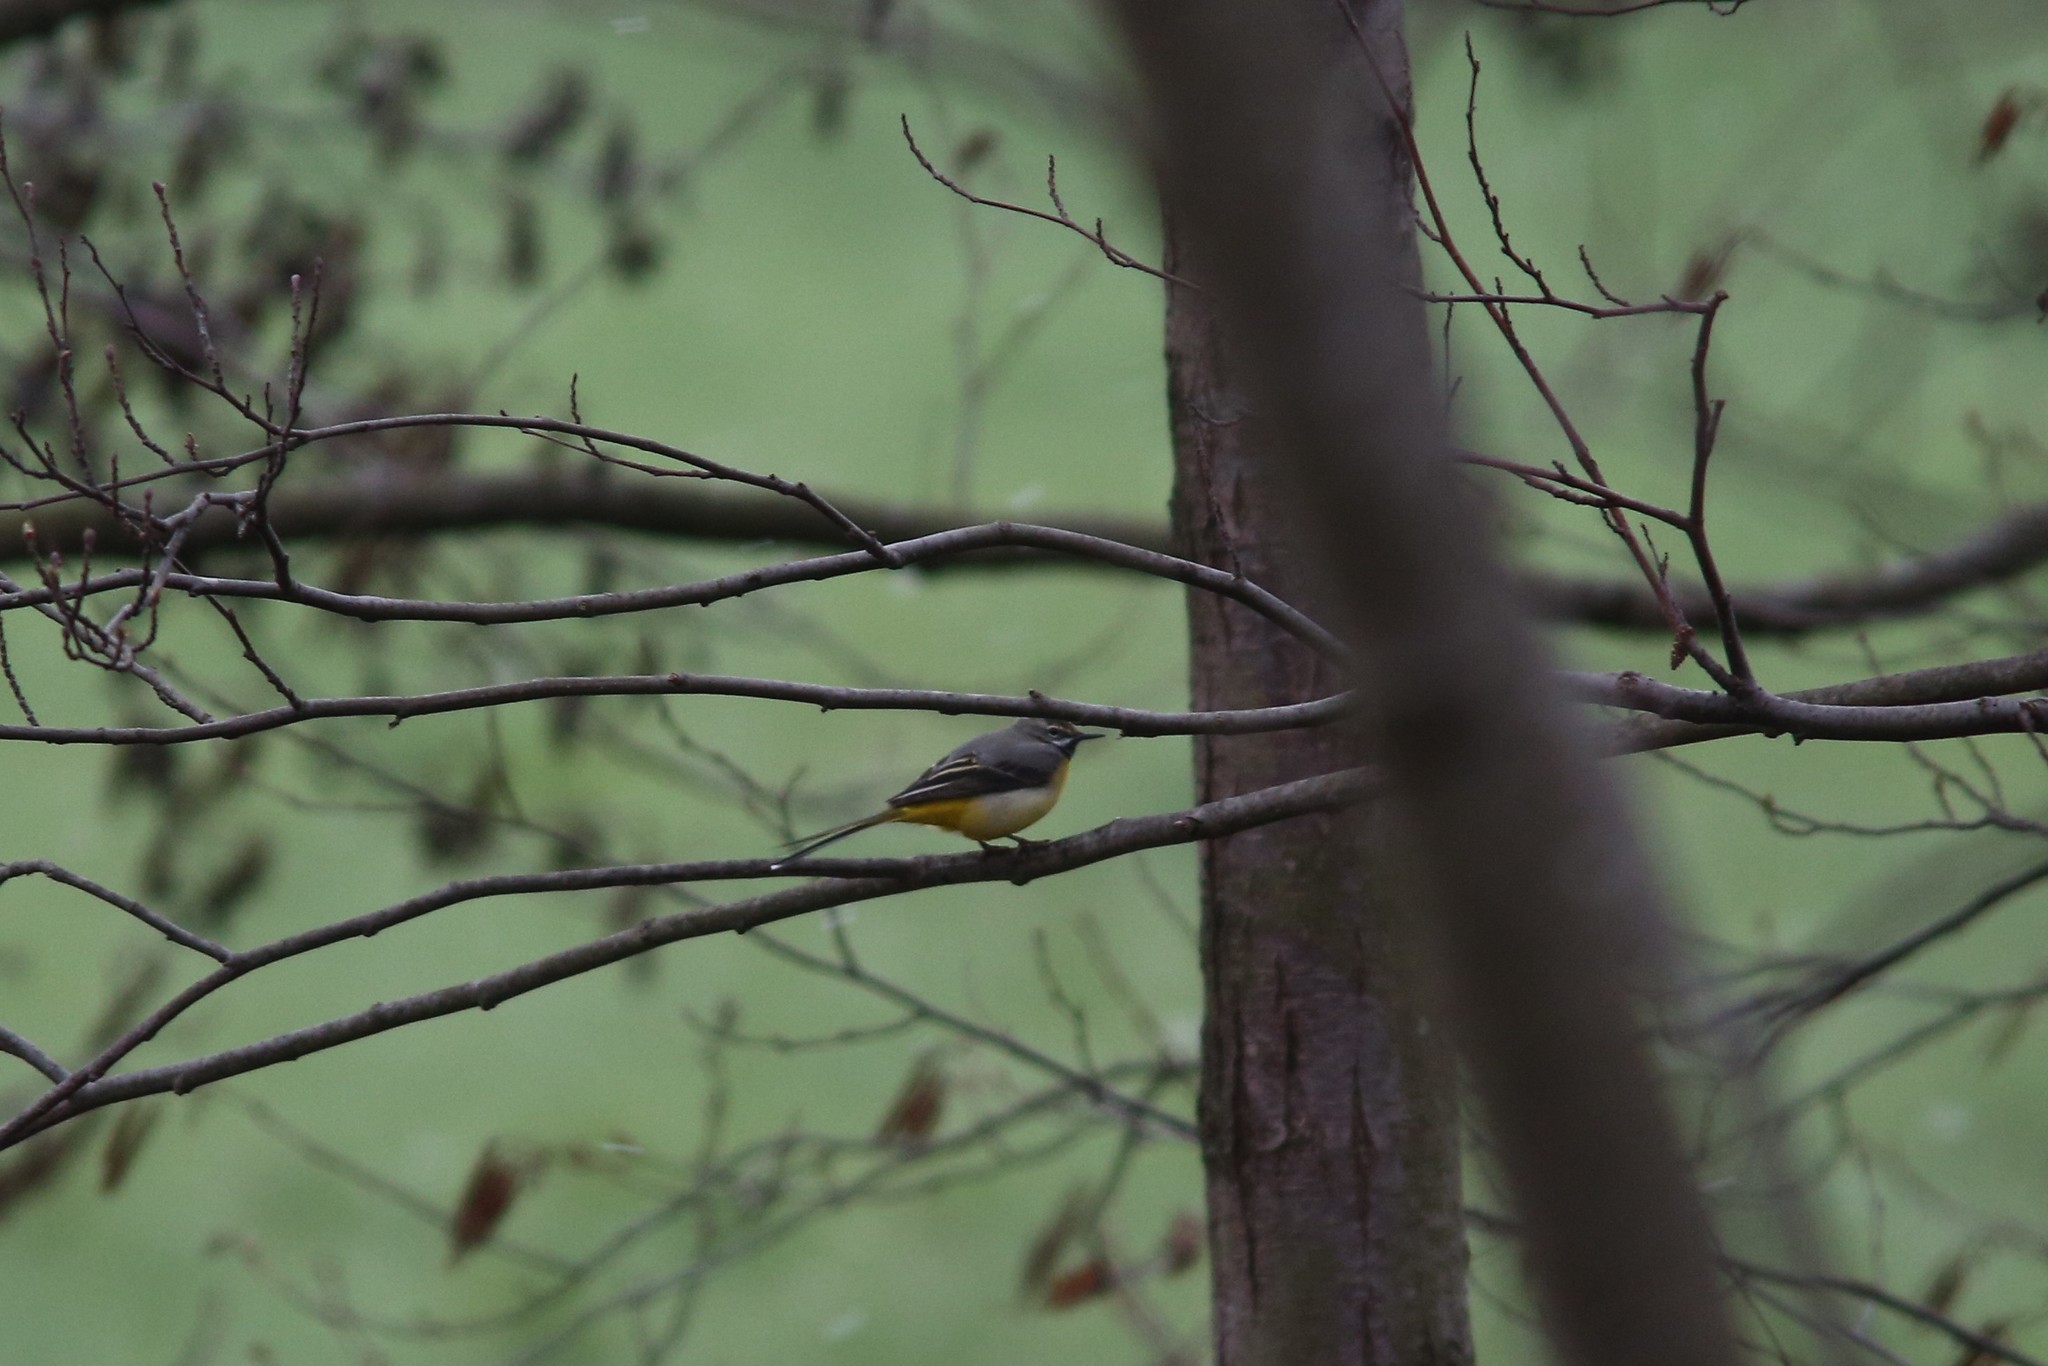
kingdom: Animalia
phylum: Chordata
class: Aves
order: Passeriformes
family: Motacillidae
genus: Motacilla
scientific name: Motacilla cinerea
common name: Grey wagtail
